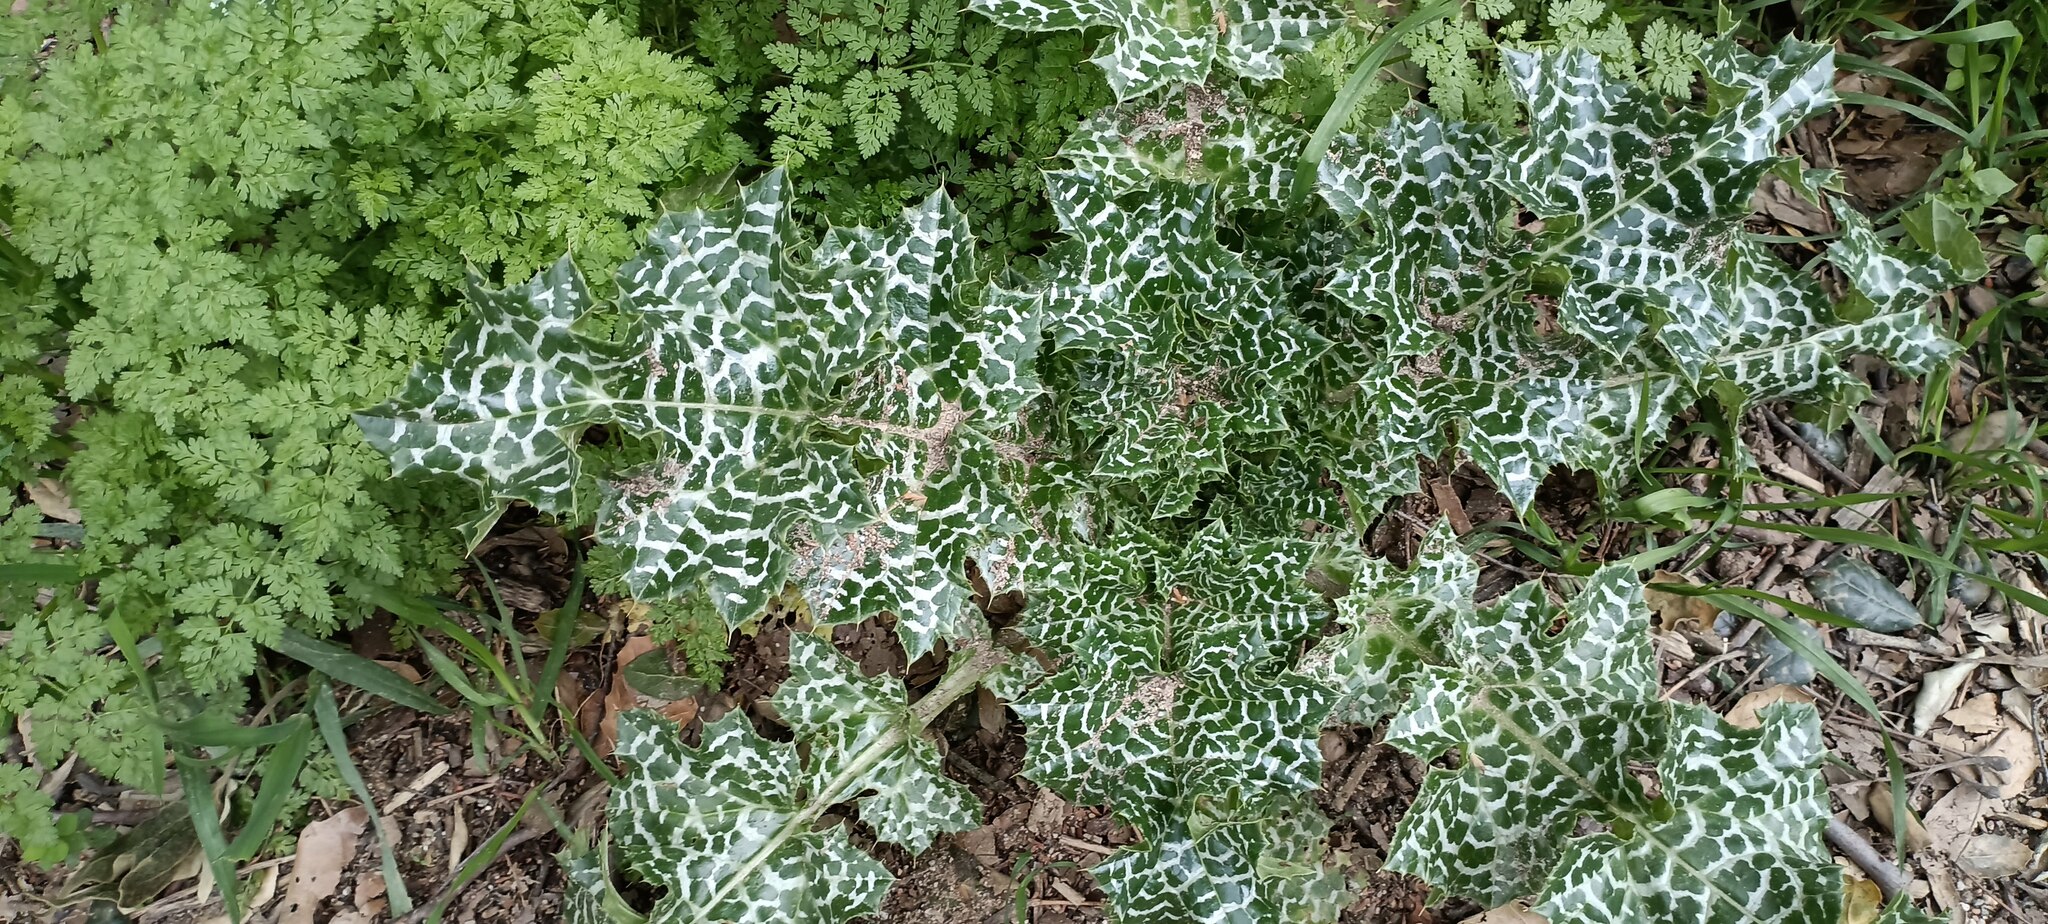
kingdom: Plantae
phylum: Tracheophyta
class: Magnoliopsida
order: Asterales
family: Asteraceae
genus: Silybum
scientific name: Silybum marianum
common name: Milk thistle
